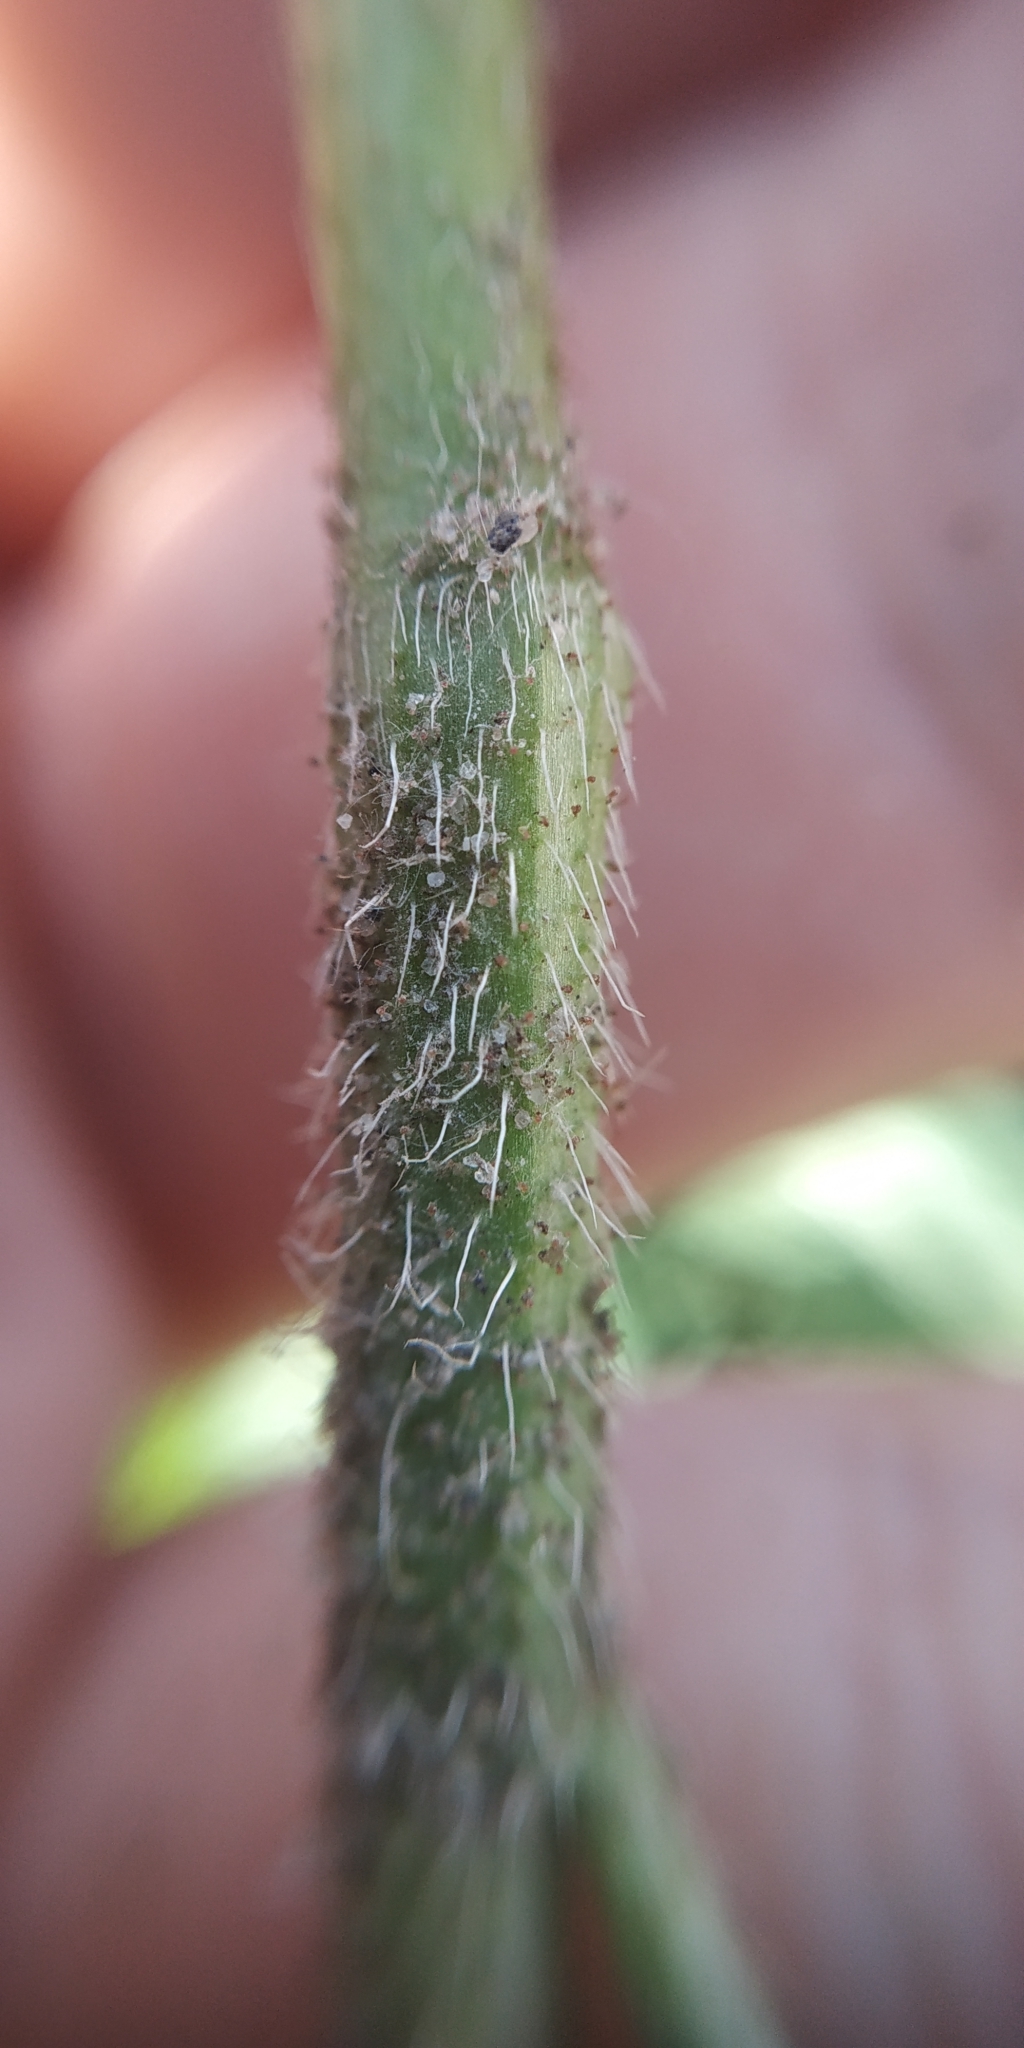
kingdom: Plantae
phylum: Tracheophyta
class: Magnoliopsida
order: Caryophyllales
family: Polygonaceae
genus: Persicaria
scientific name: Persicaria amphibia
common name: Amphibious bistort
